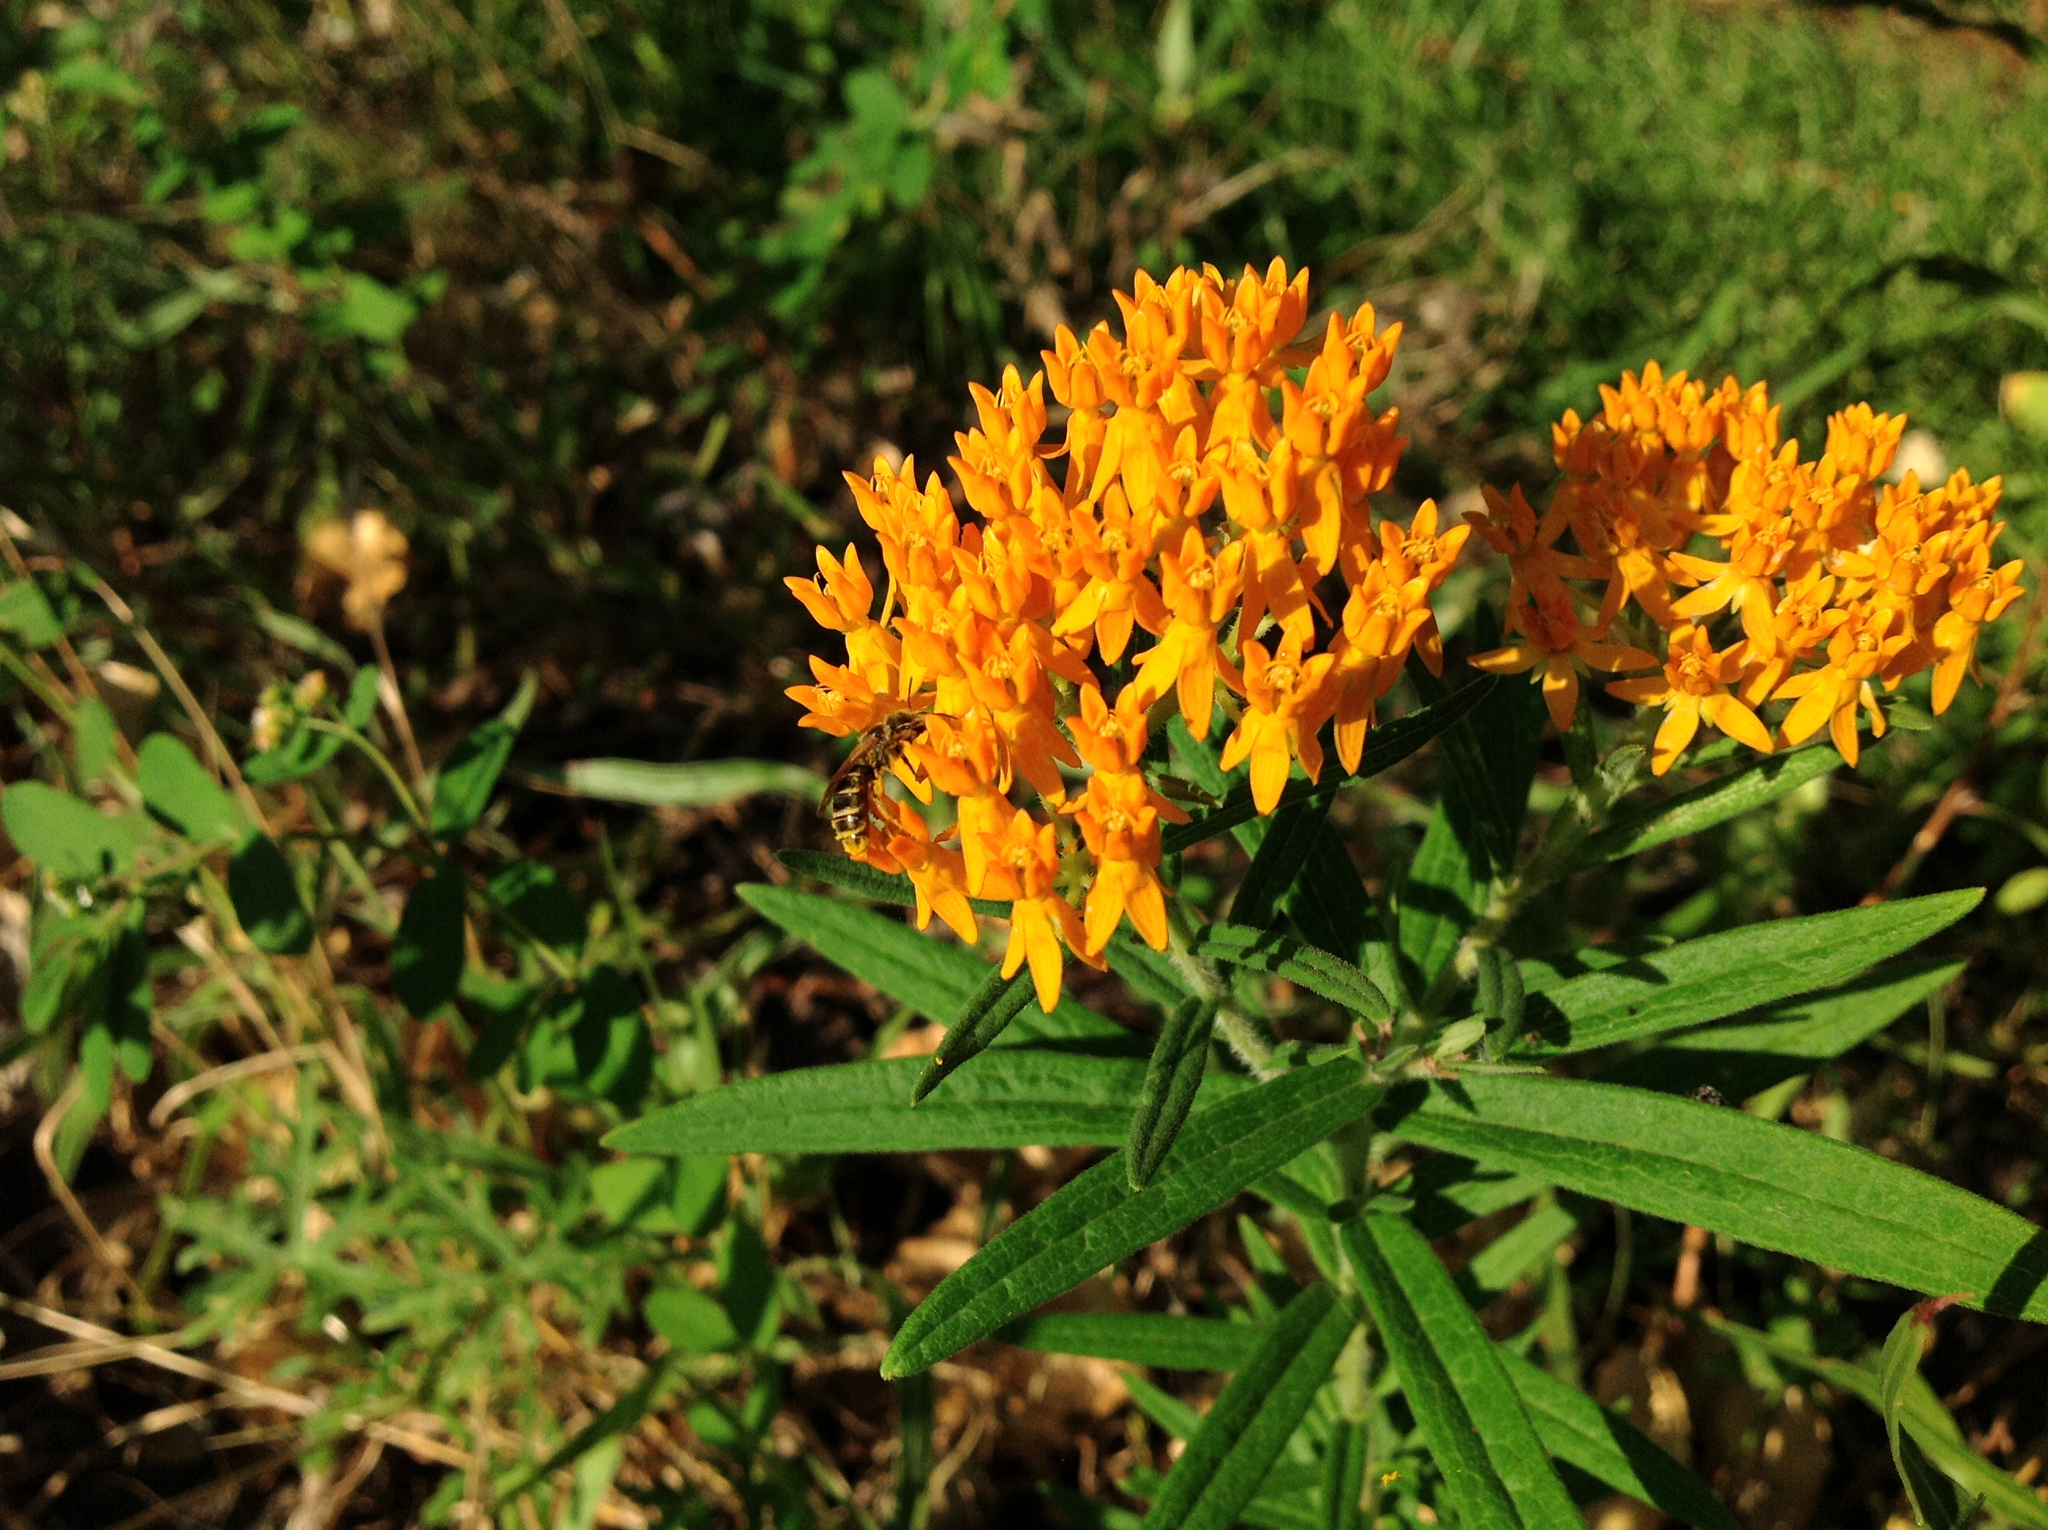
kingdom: Plantae
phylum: Tracheophyta
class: Magnoliopsida
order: Gentianales
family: Apocynaceae
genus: Asclepias
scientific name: Asclepias tuberosa
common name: Butterfly milkweed
